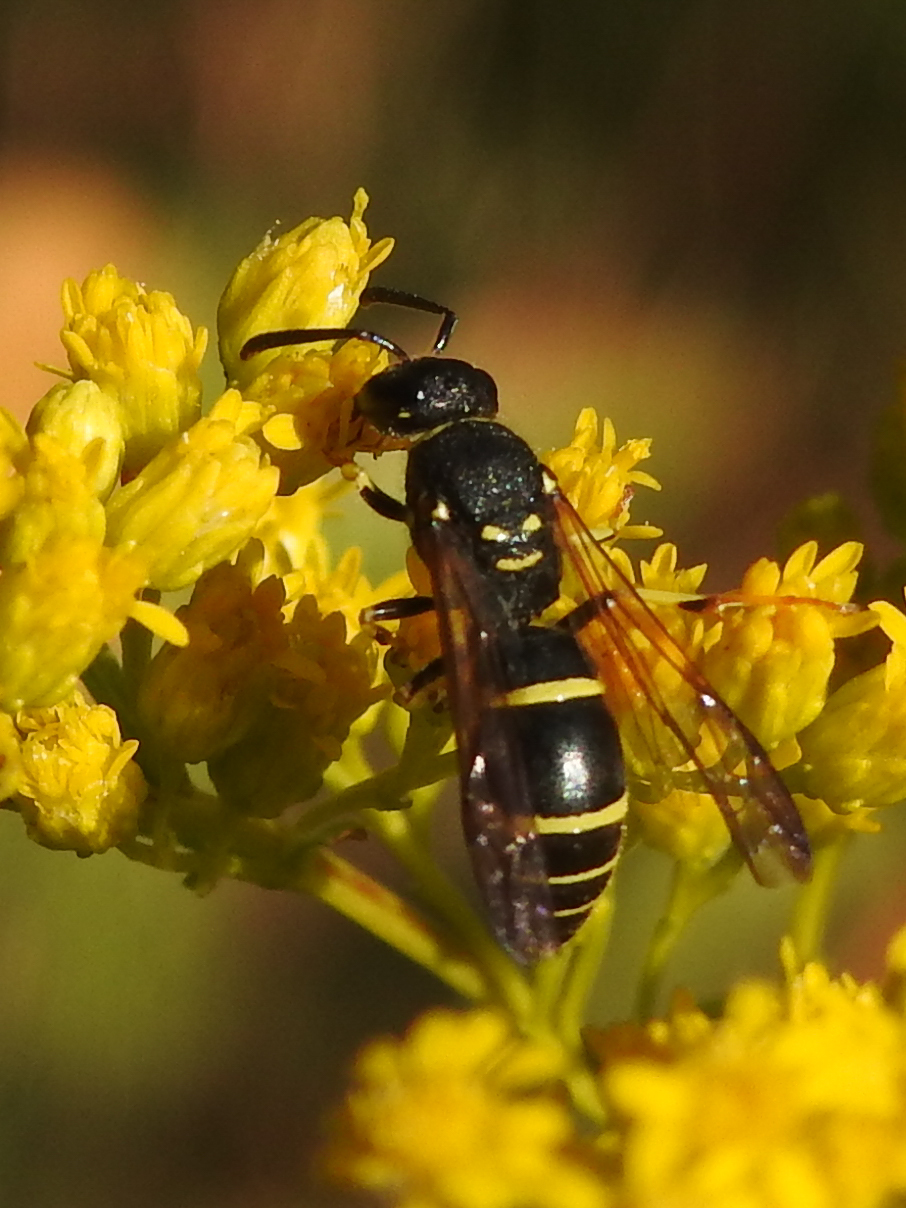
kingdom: Animalia
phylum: Arthropoda
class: Insecta
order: Hymenoptera
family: Vespidae
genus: Ancistrocerus
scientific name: Ancistrocerus adiabatus
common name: Bramble mason wasp
